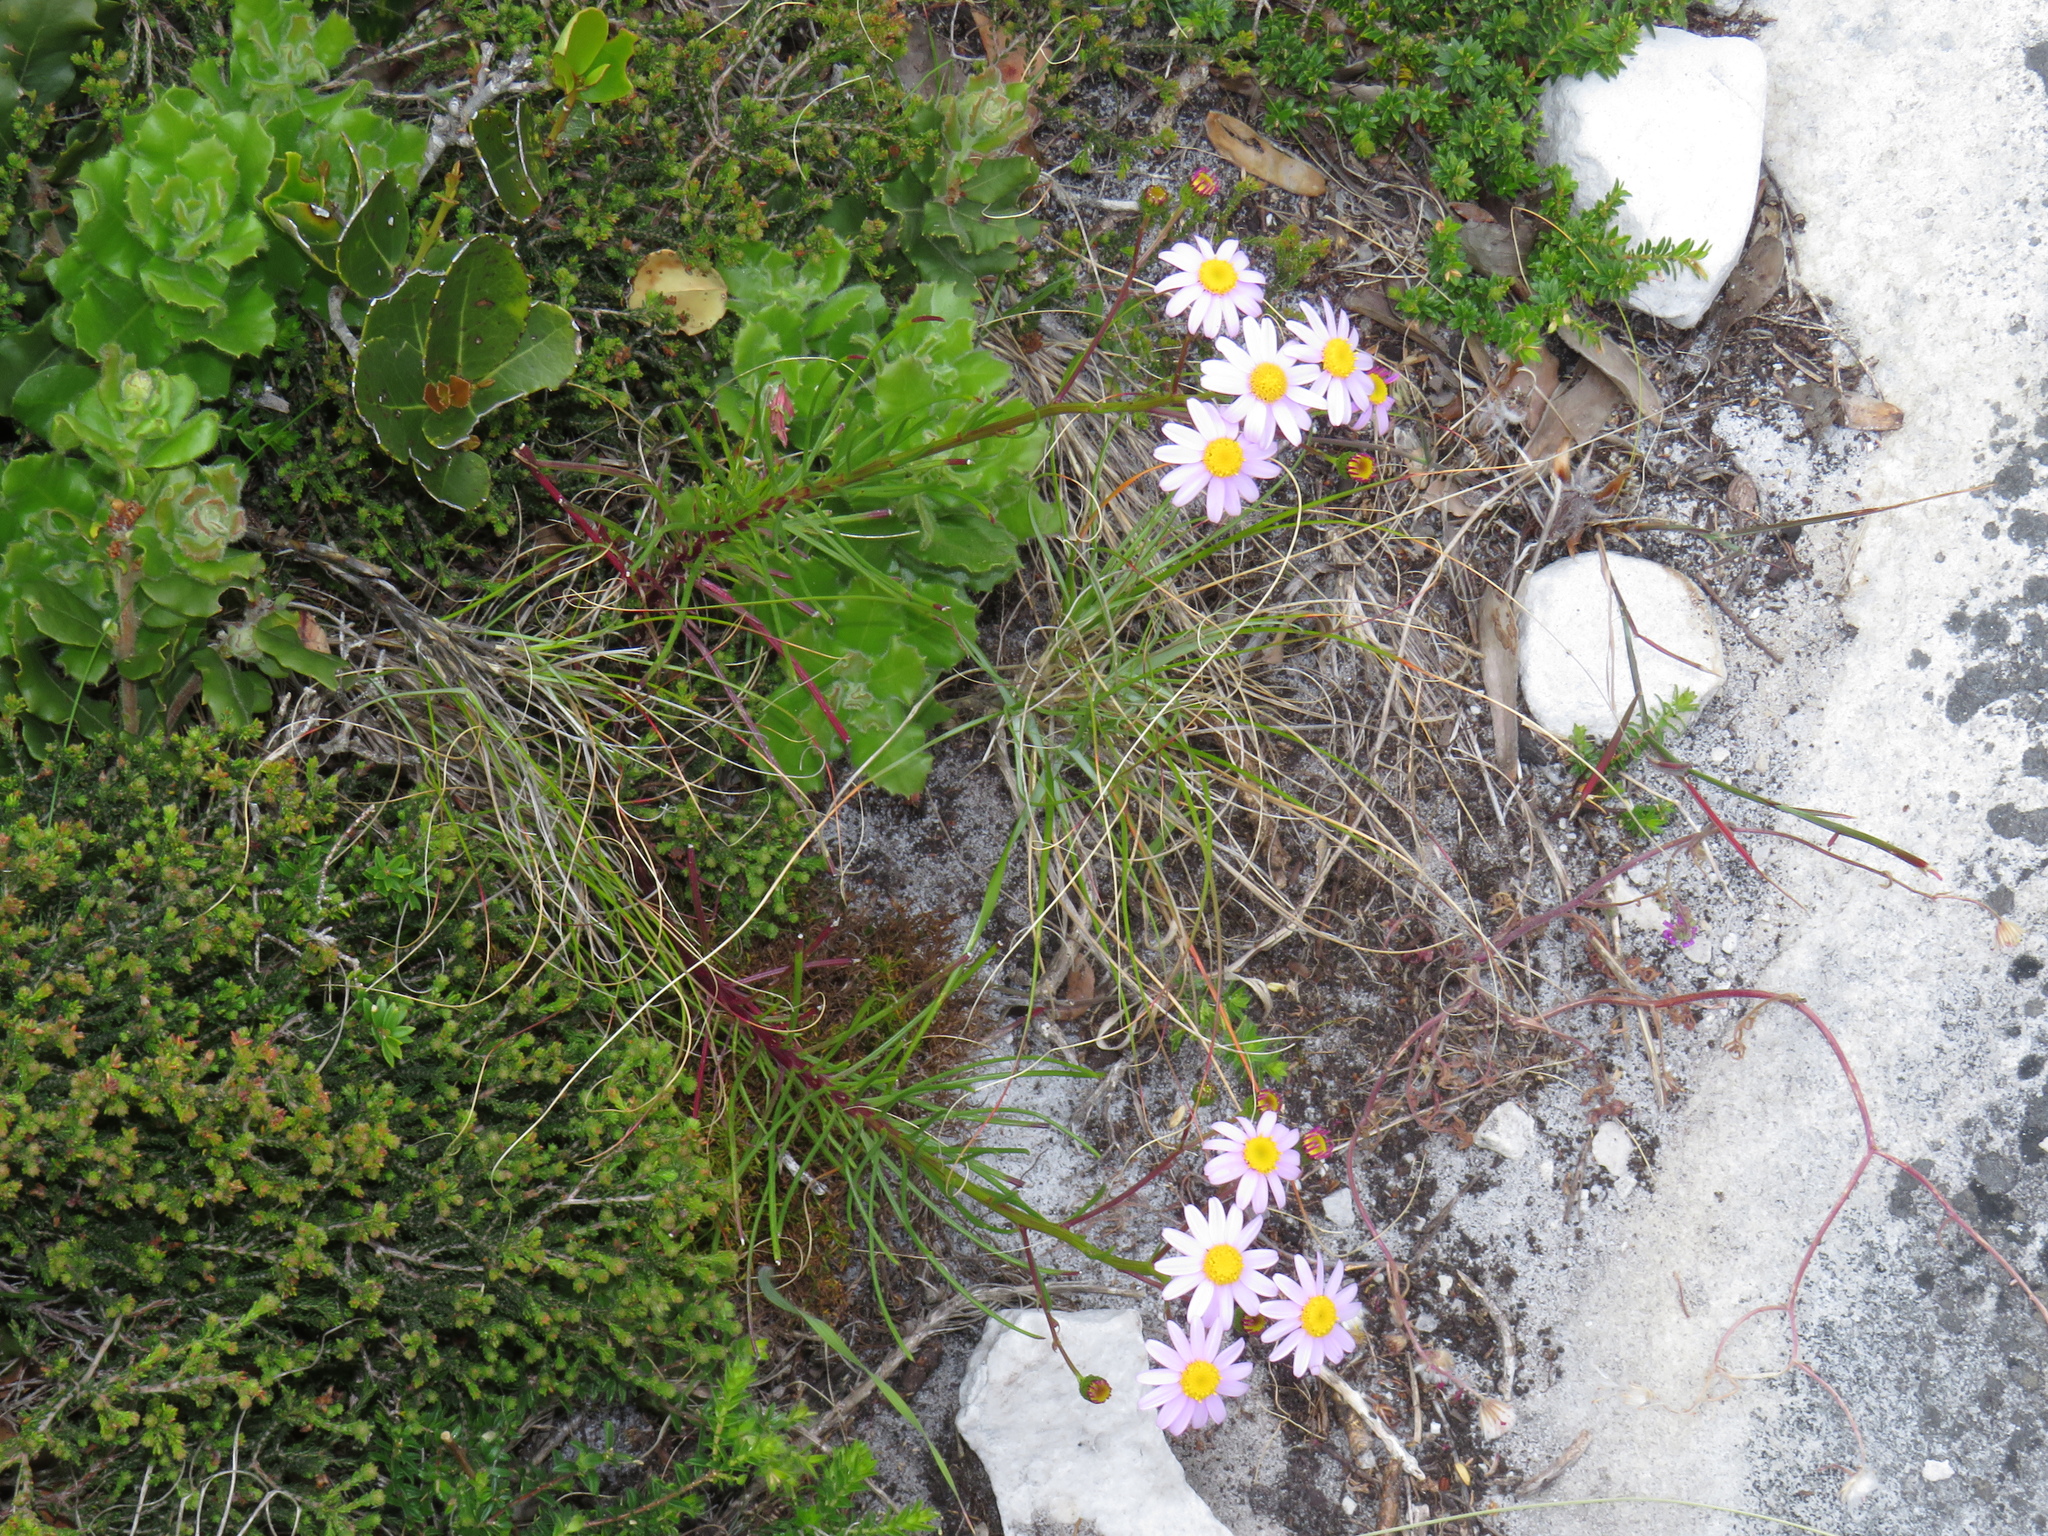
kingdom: Plantae
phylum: Tracheophyta
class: Magnoliopsida
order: Asterales
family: Asteraceae
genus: Senecio
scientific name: Senecio umbellatus
